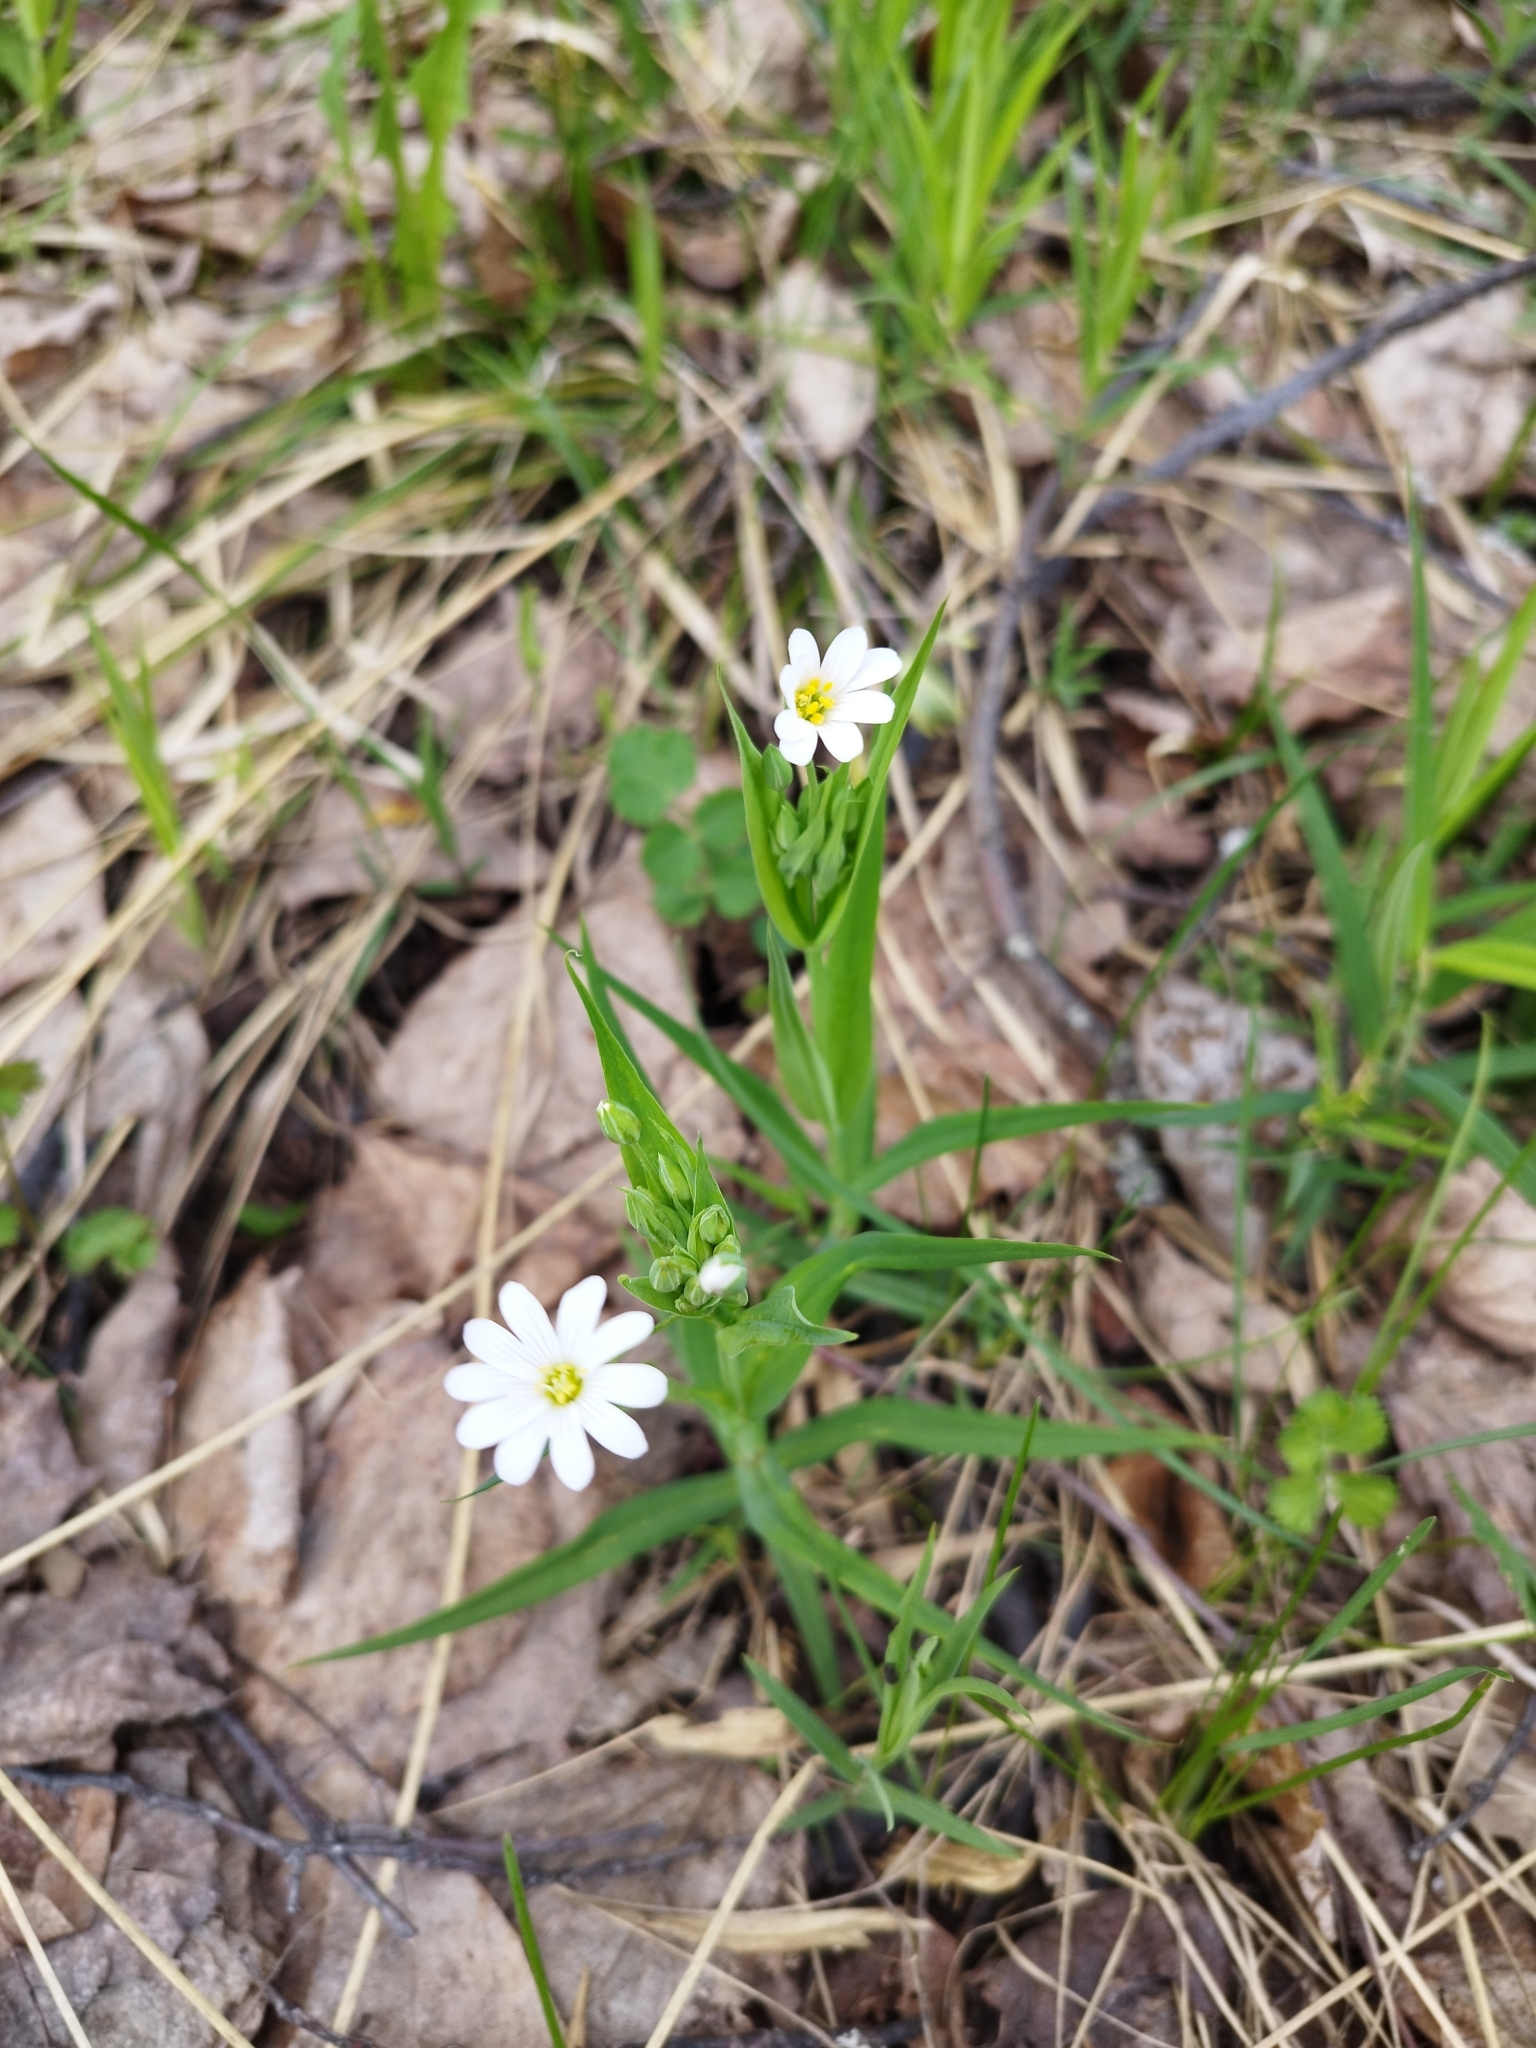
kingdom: Plantae
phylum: Tracheophyta
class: Magnoliopsida
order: Caryophyllales
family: Caryophyllaceae
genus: Rabelera
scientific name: Rabelera holostea
